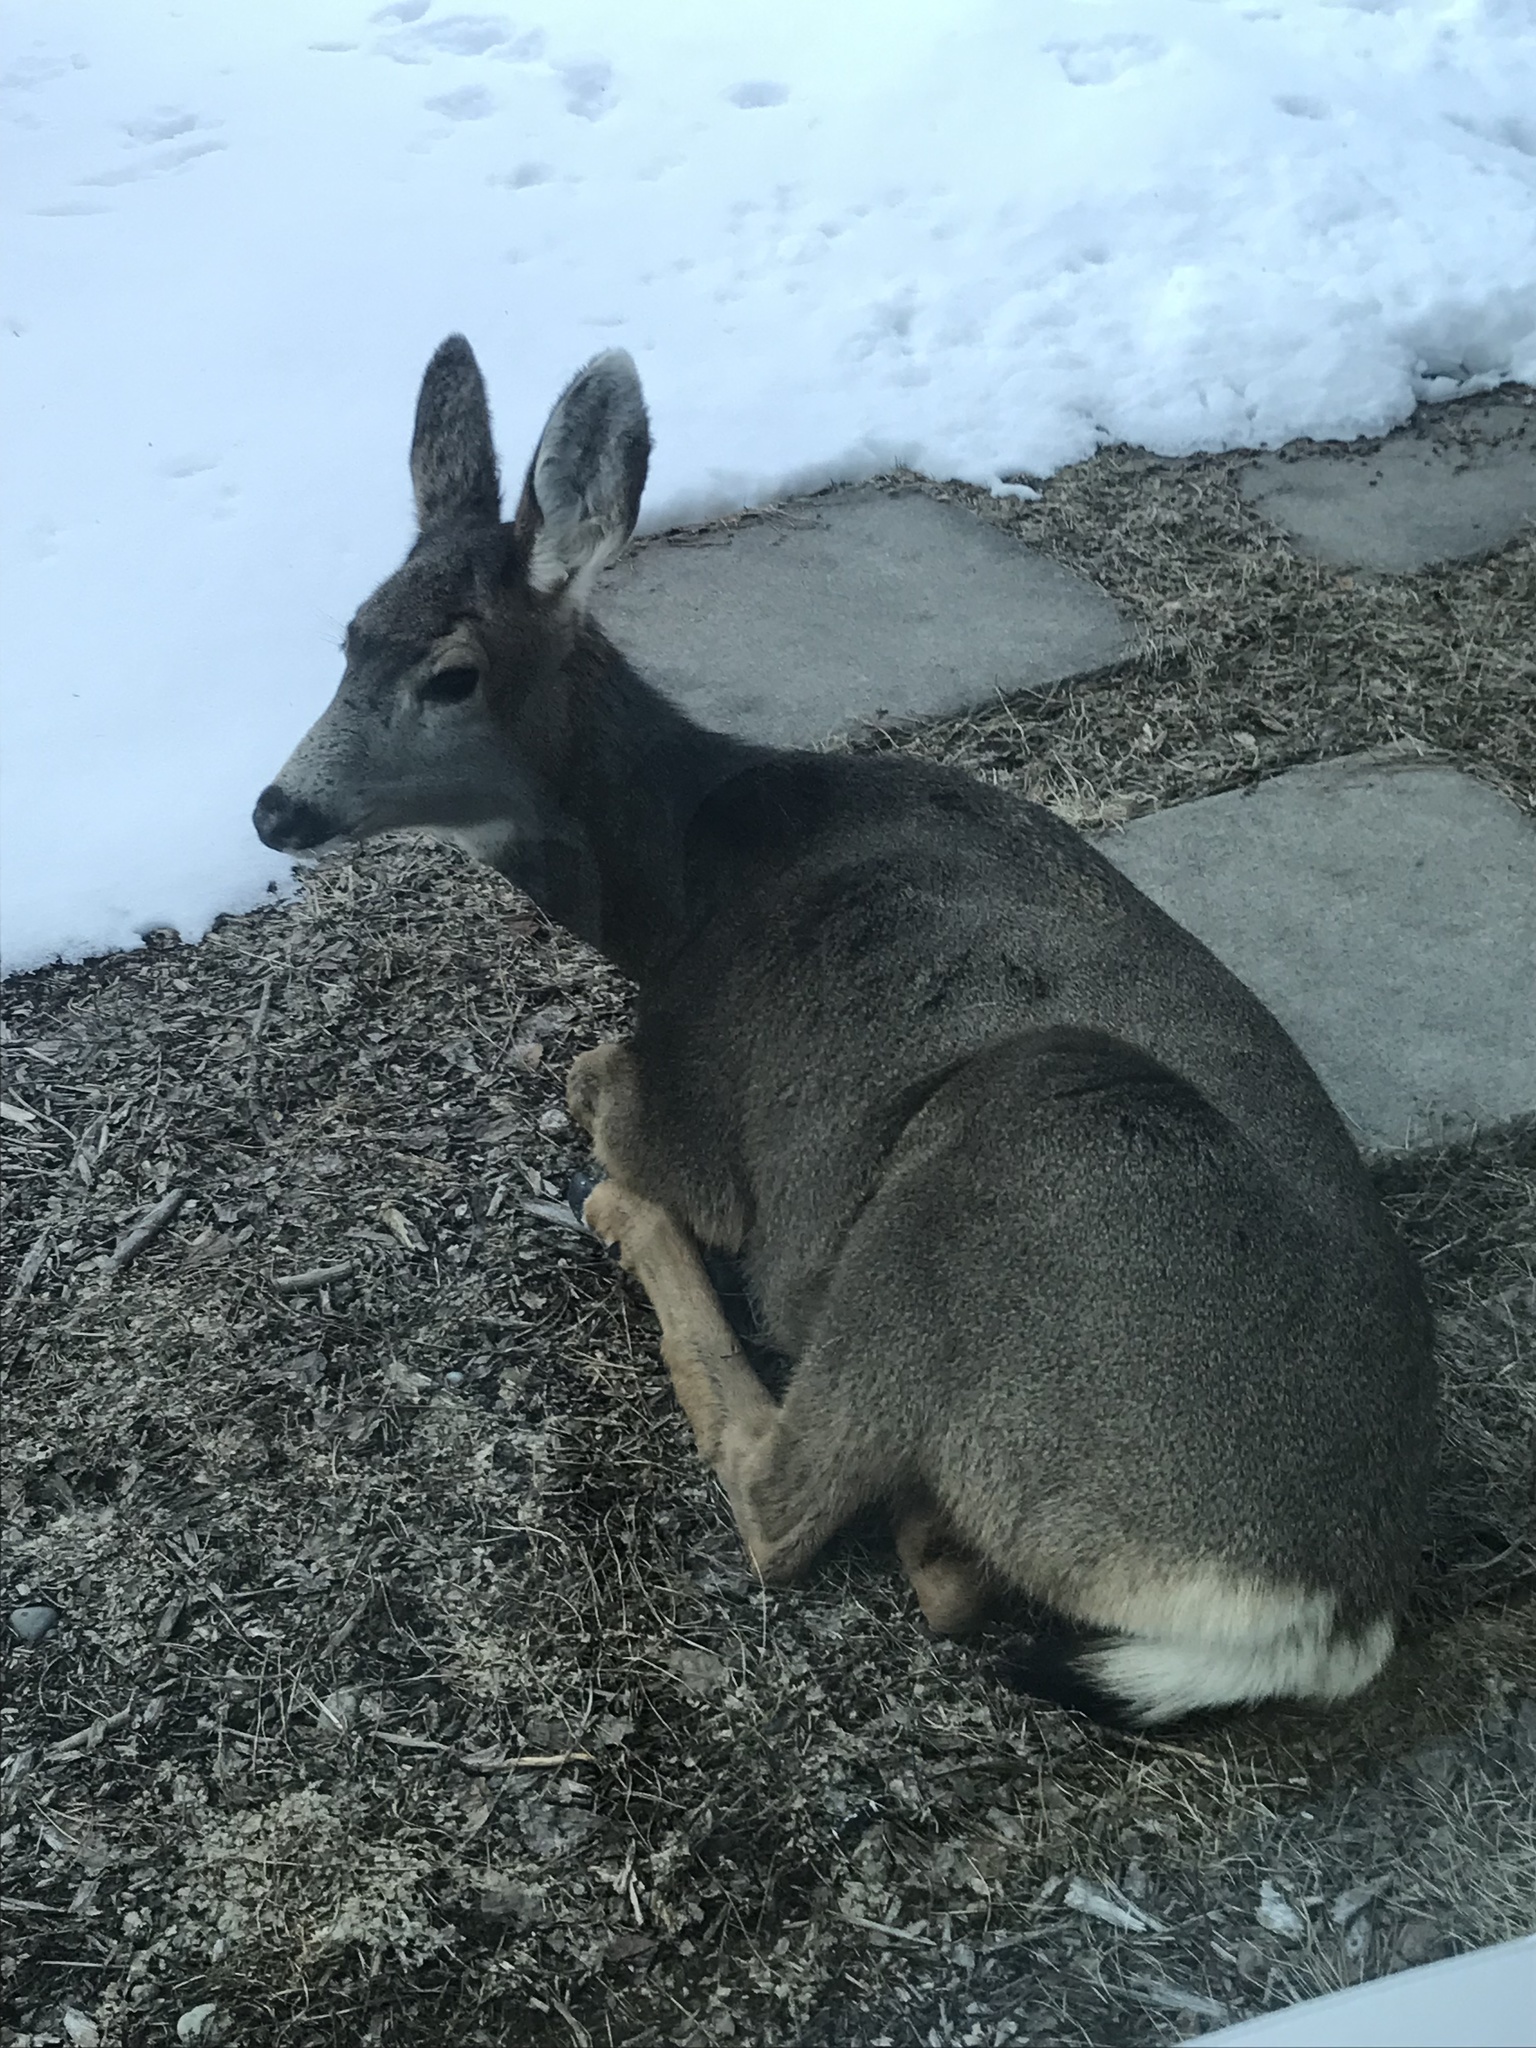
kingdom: Animalia
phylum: Chordata
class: Mammalia
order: Artiodactyla
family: Cervidae
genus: Odocoileus
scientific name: Odocoileus hemionus
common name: Mule deer
